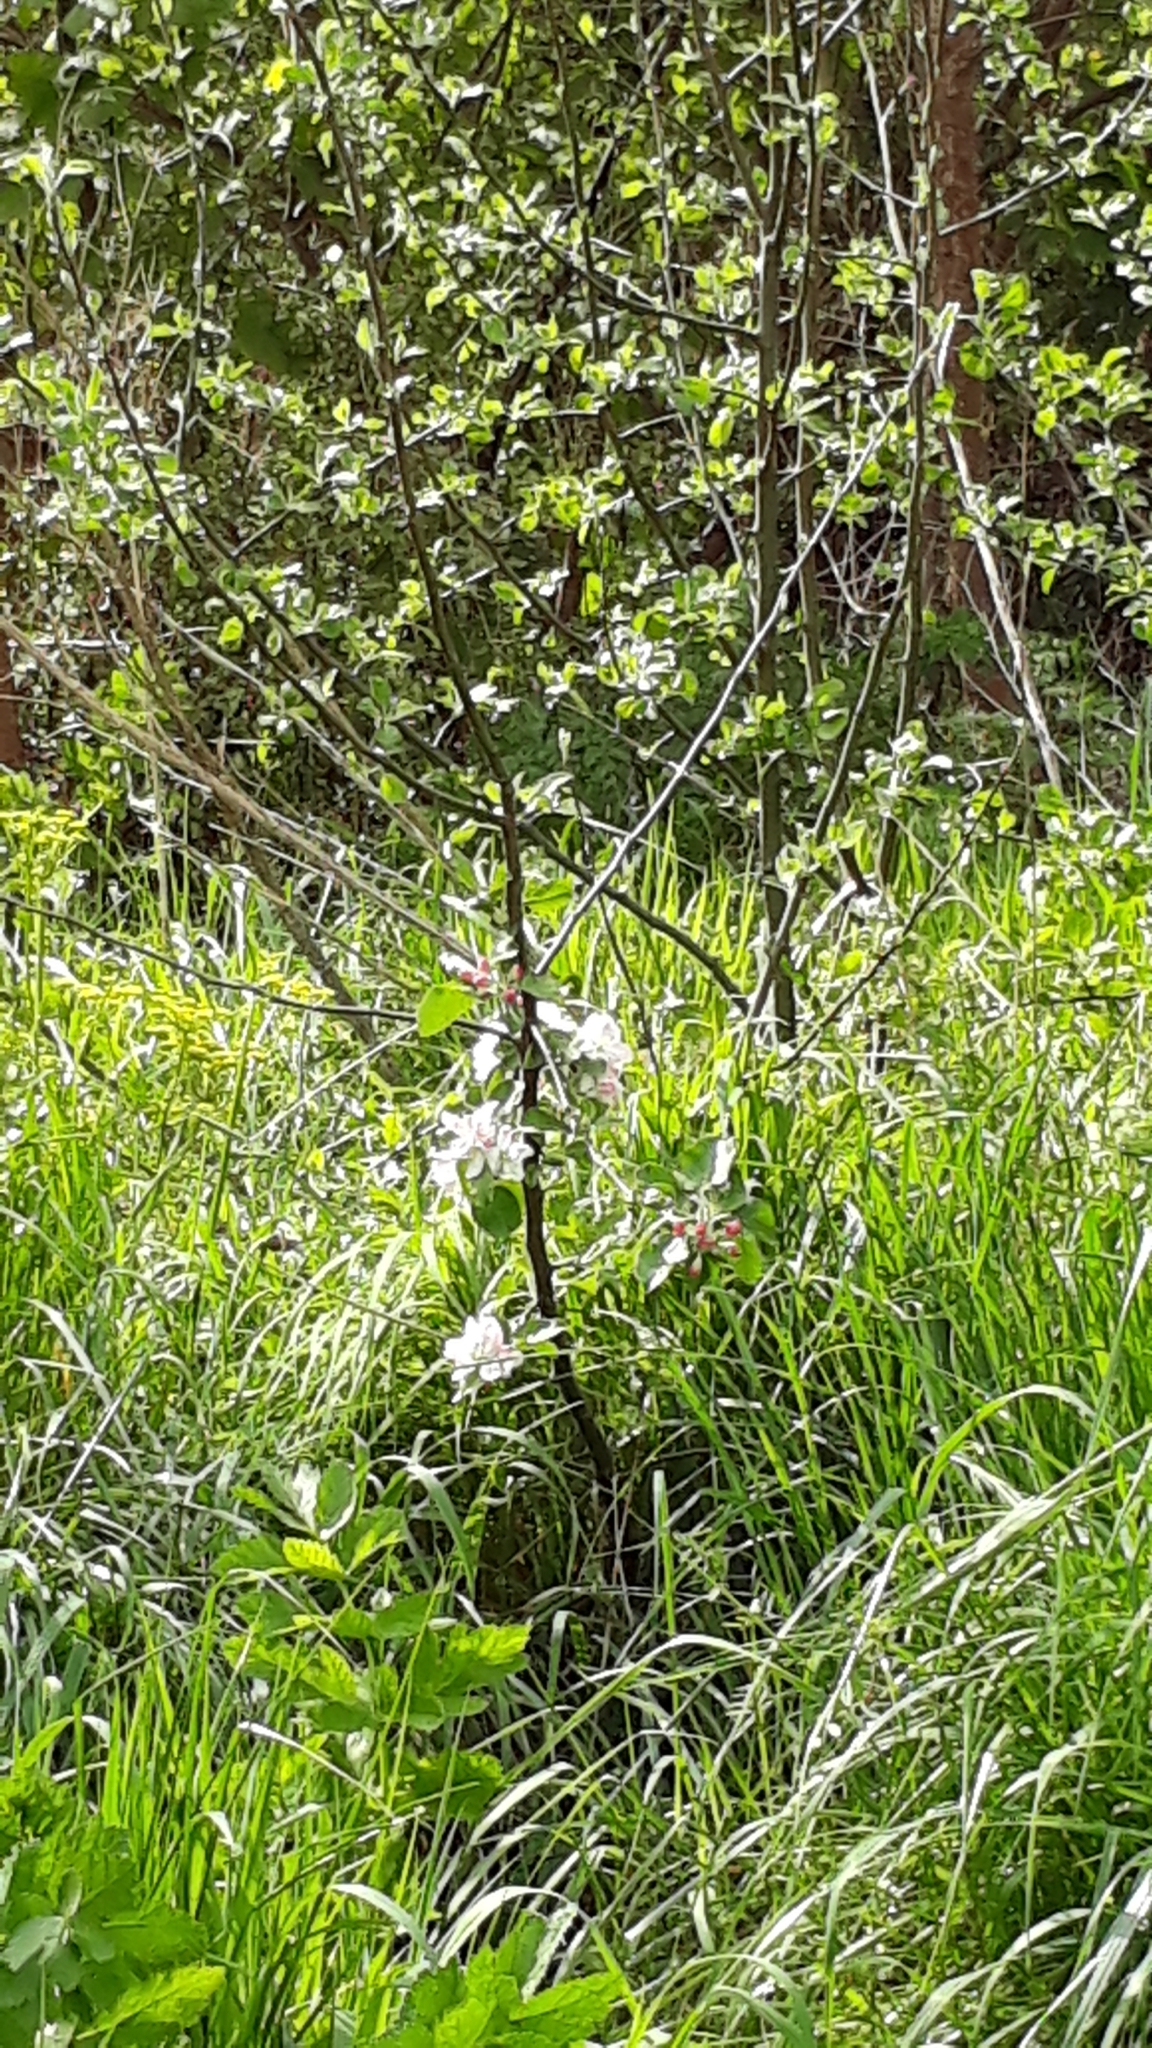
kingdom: Plantae
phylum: Tracheophyta
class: Magnoliopsida
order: Rosales
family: Rosaceae
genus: Malus
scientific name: Malus domestica
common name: Apple
